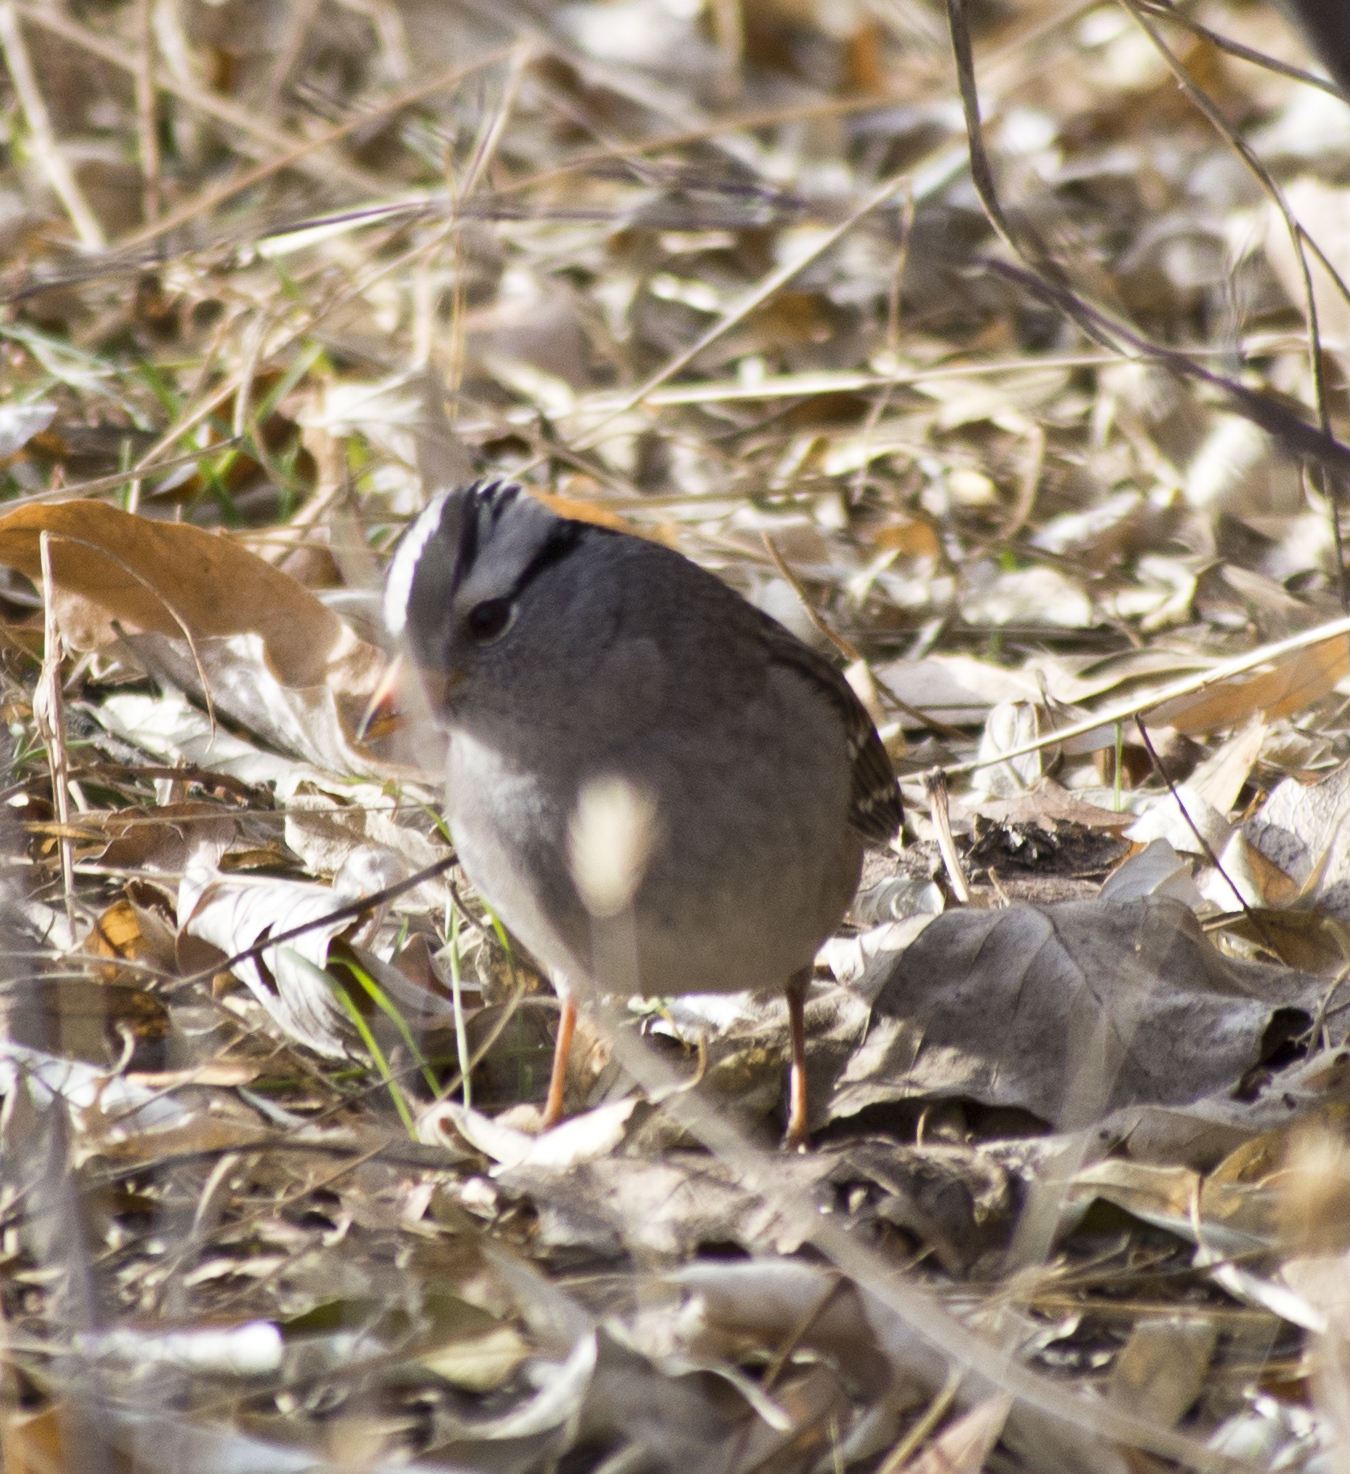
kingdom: Animalia
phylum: Chordata
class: Aves
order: Passeriformes
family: Passerellidae
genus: Zonotrichia
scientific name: Zonotrichia leucophrys
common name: White-crowned sparrow
